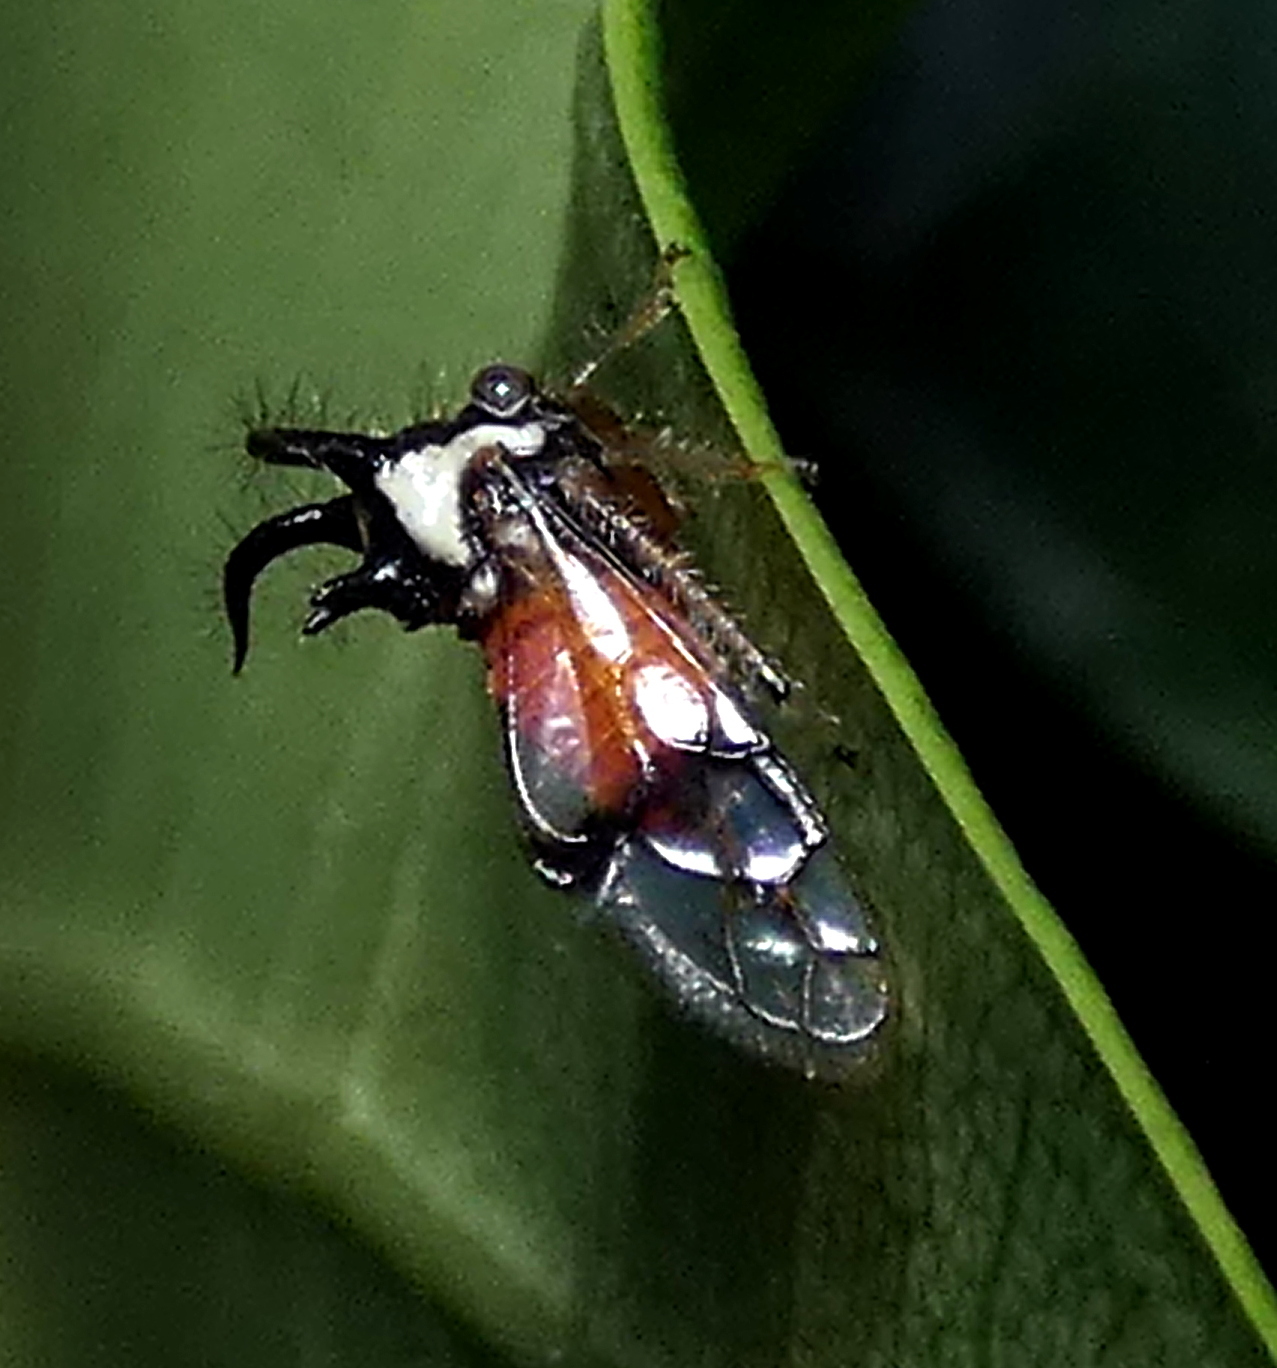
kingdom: Animalia
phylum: Arthropoda
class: Insecta
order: Hemiptera
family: Membracidae
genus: Cyphonia
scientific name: Cyphonia trifida
